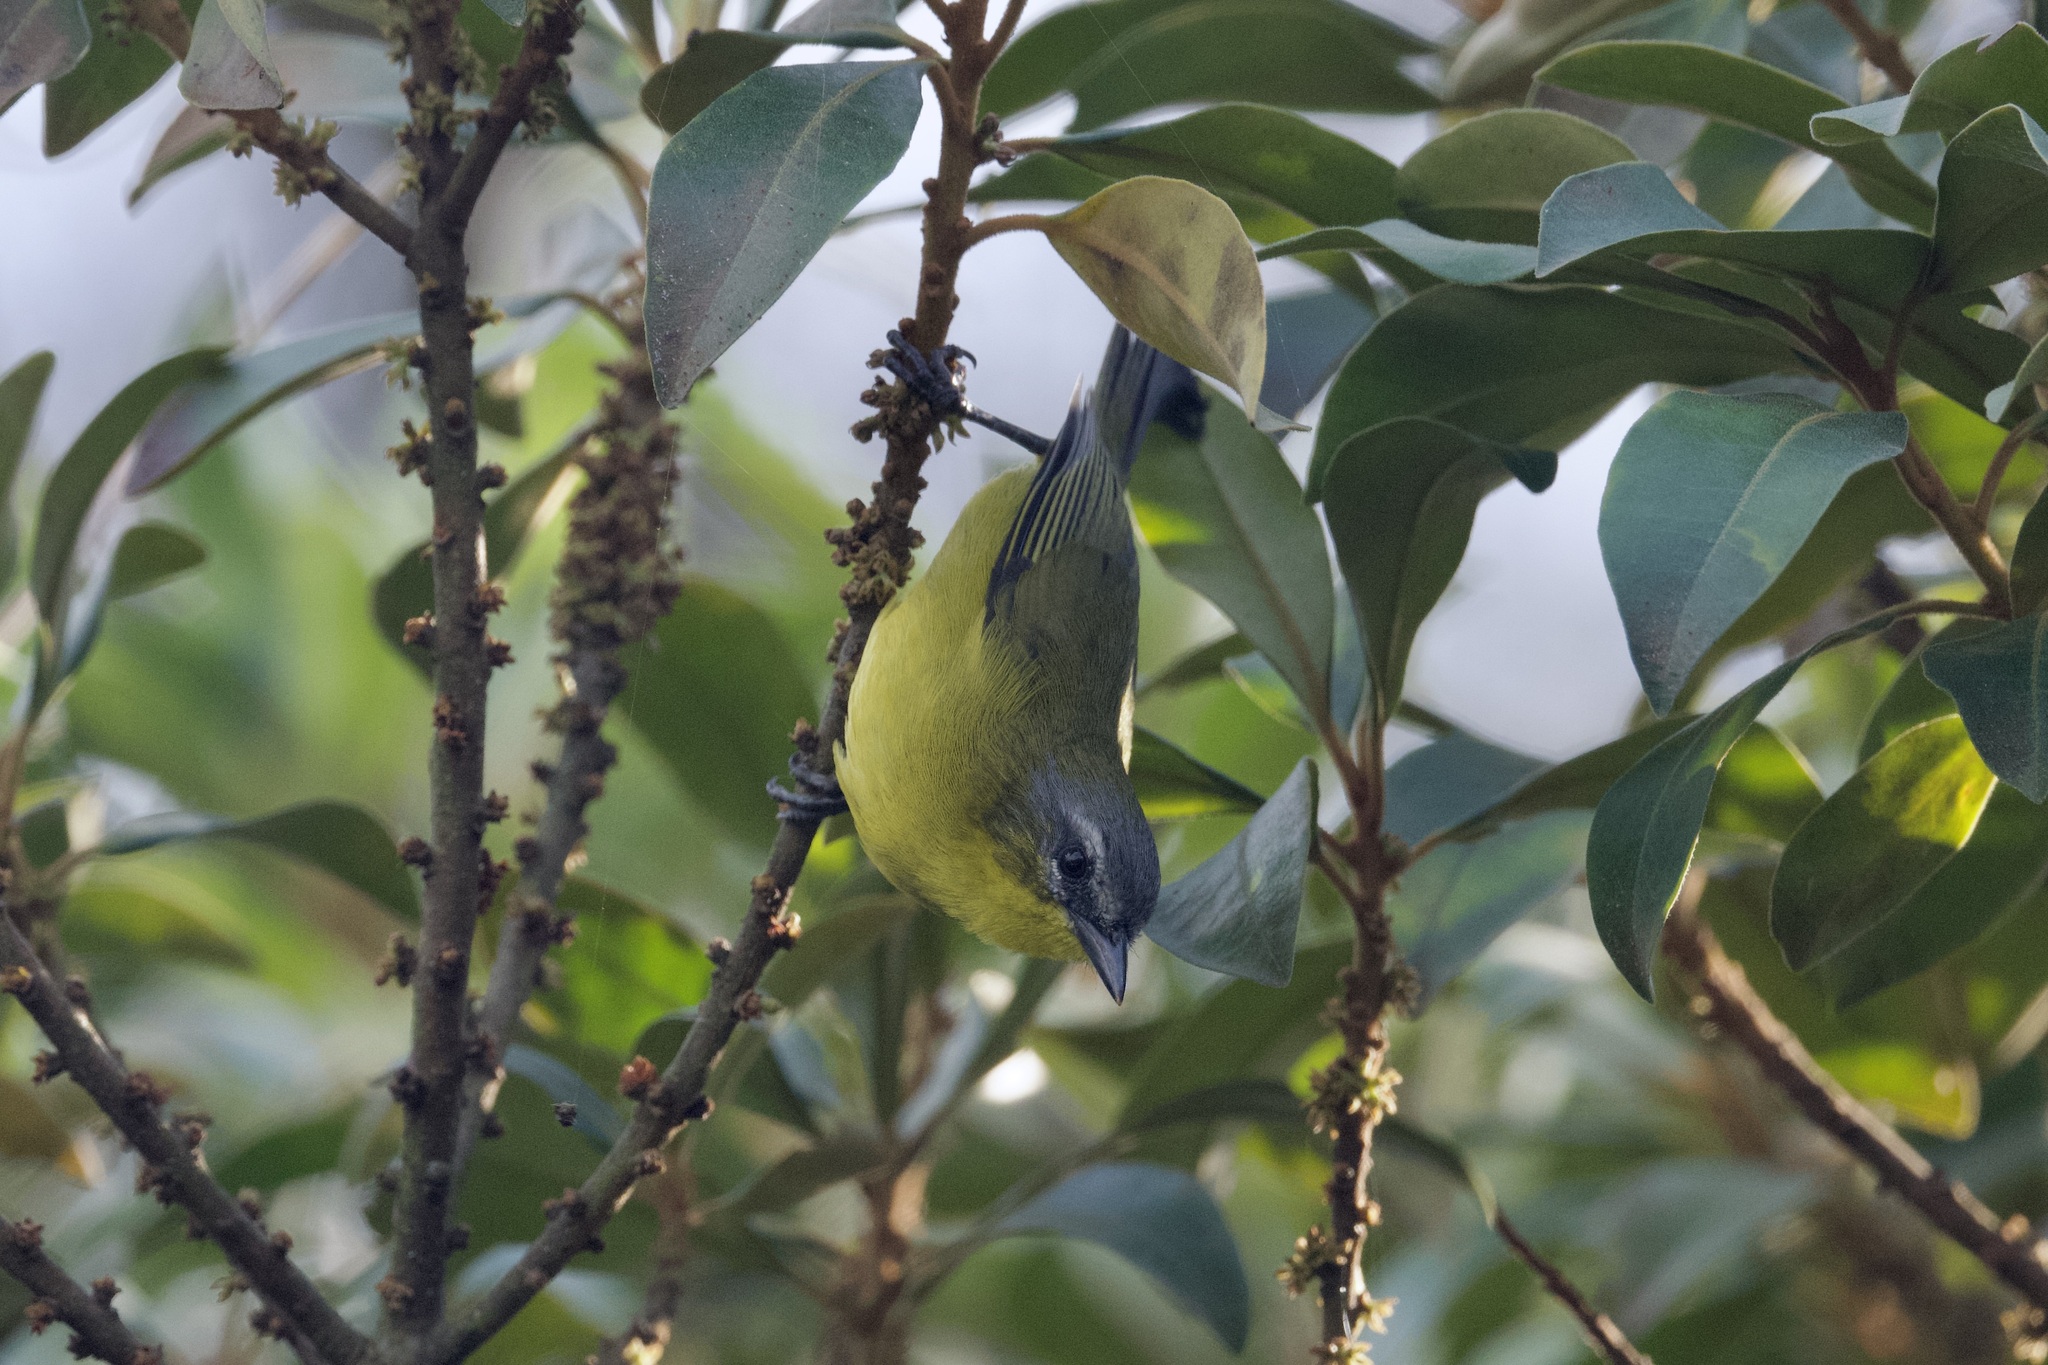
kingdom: Animalia
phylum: Chordata
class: Aves
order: Passeriformes
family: Thraupidae
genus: Thlypopsis
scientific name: Thlypopsis superciliaris
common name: Superciliaried hemispingus
